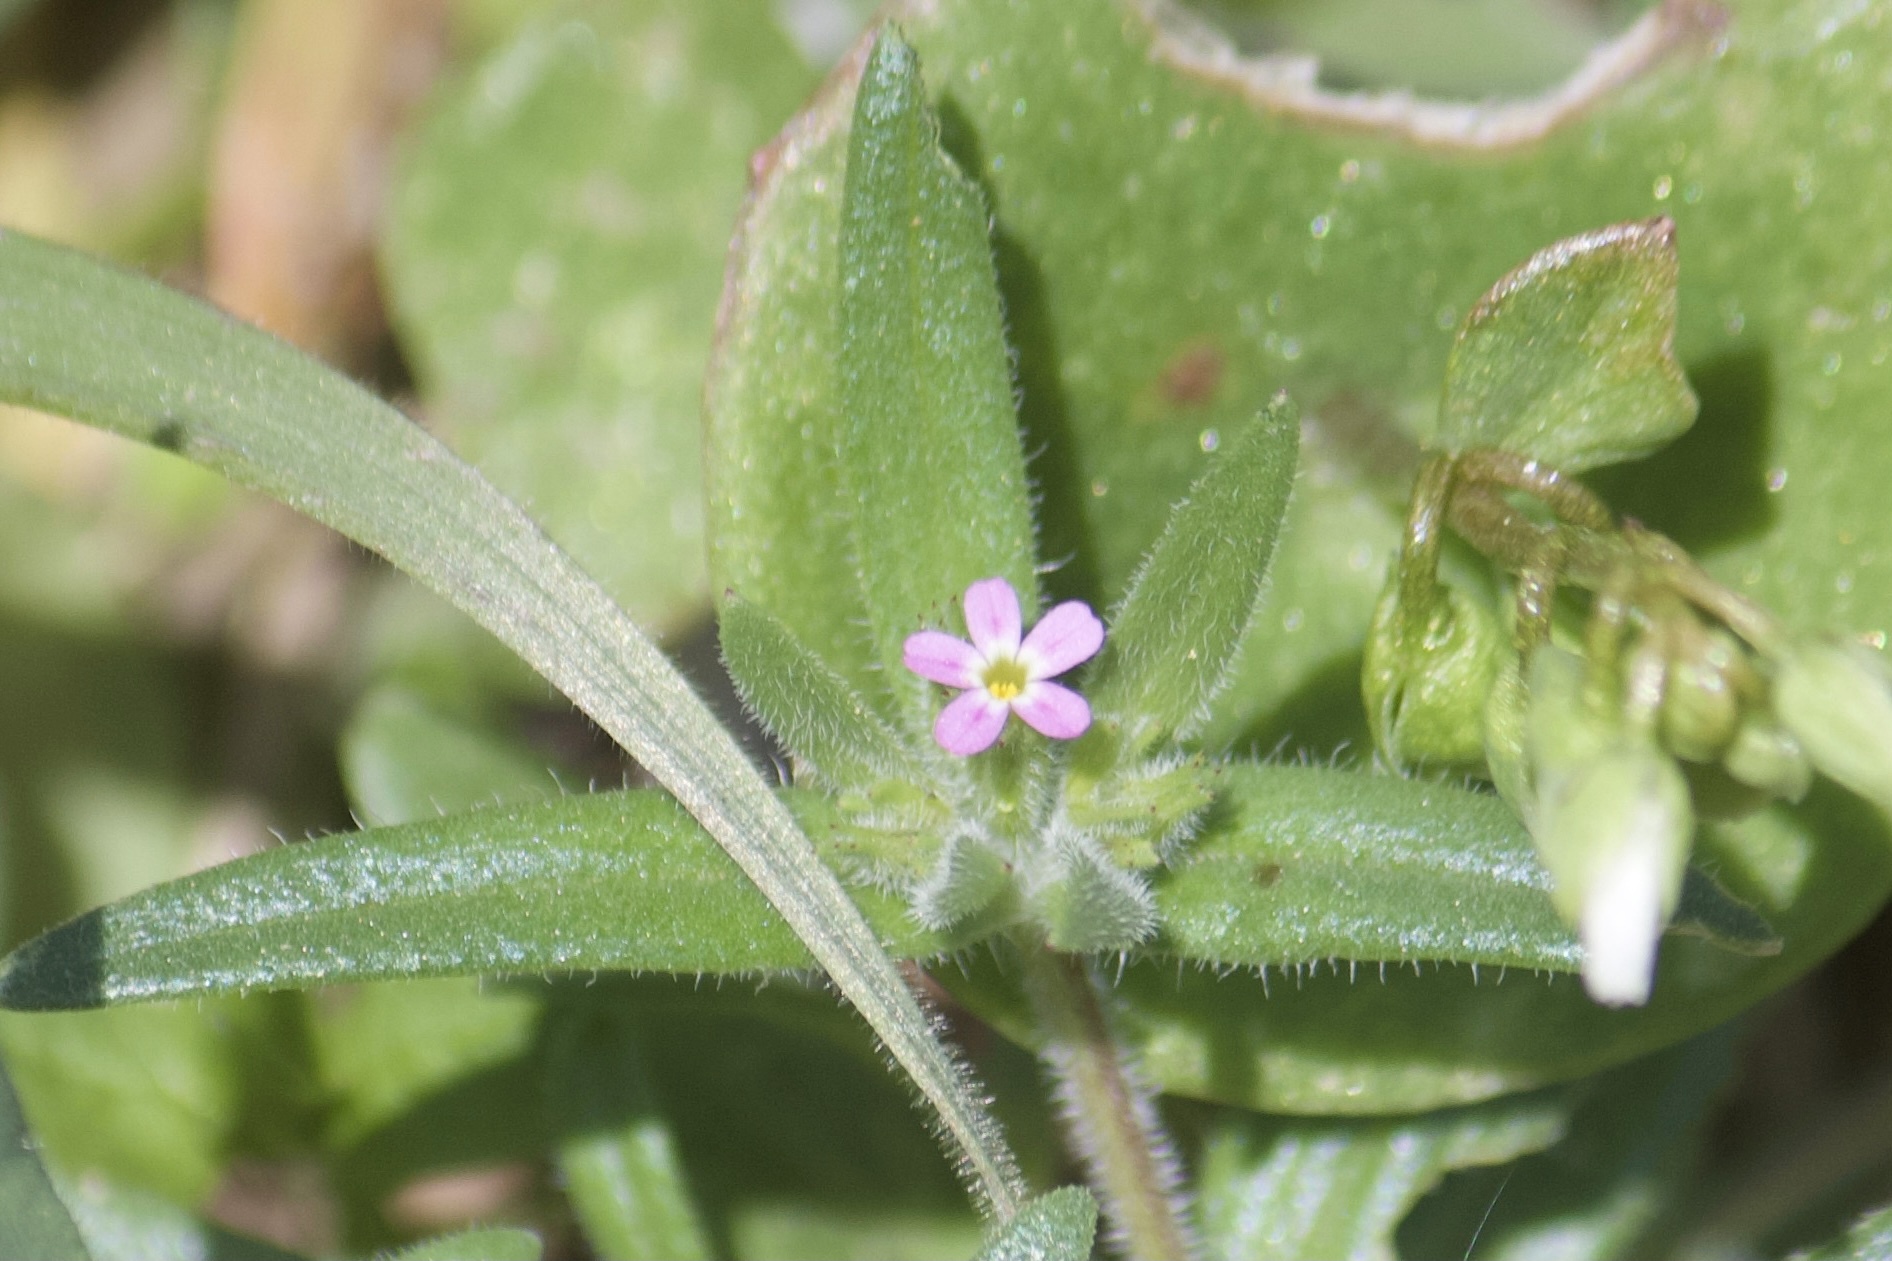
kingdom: Plantae
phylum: Tracheophyta
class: Magnoliopsida
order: Ericales
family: Polemoniaceae
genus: Phlox
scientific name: Phlox gracilis
